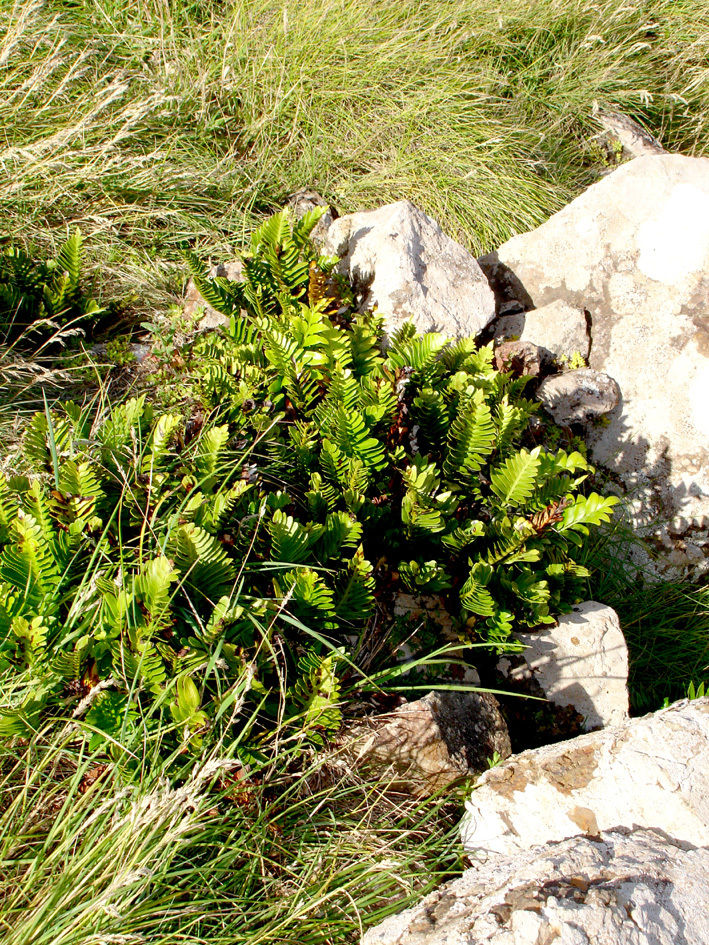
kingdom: Plantae
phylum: Tracheophyta
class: Polypodiopsida
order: Polypodiales
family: Aspleniaceae
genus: Asplenium
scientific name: Asplenium obtusatum
